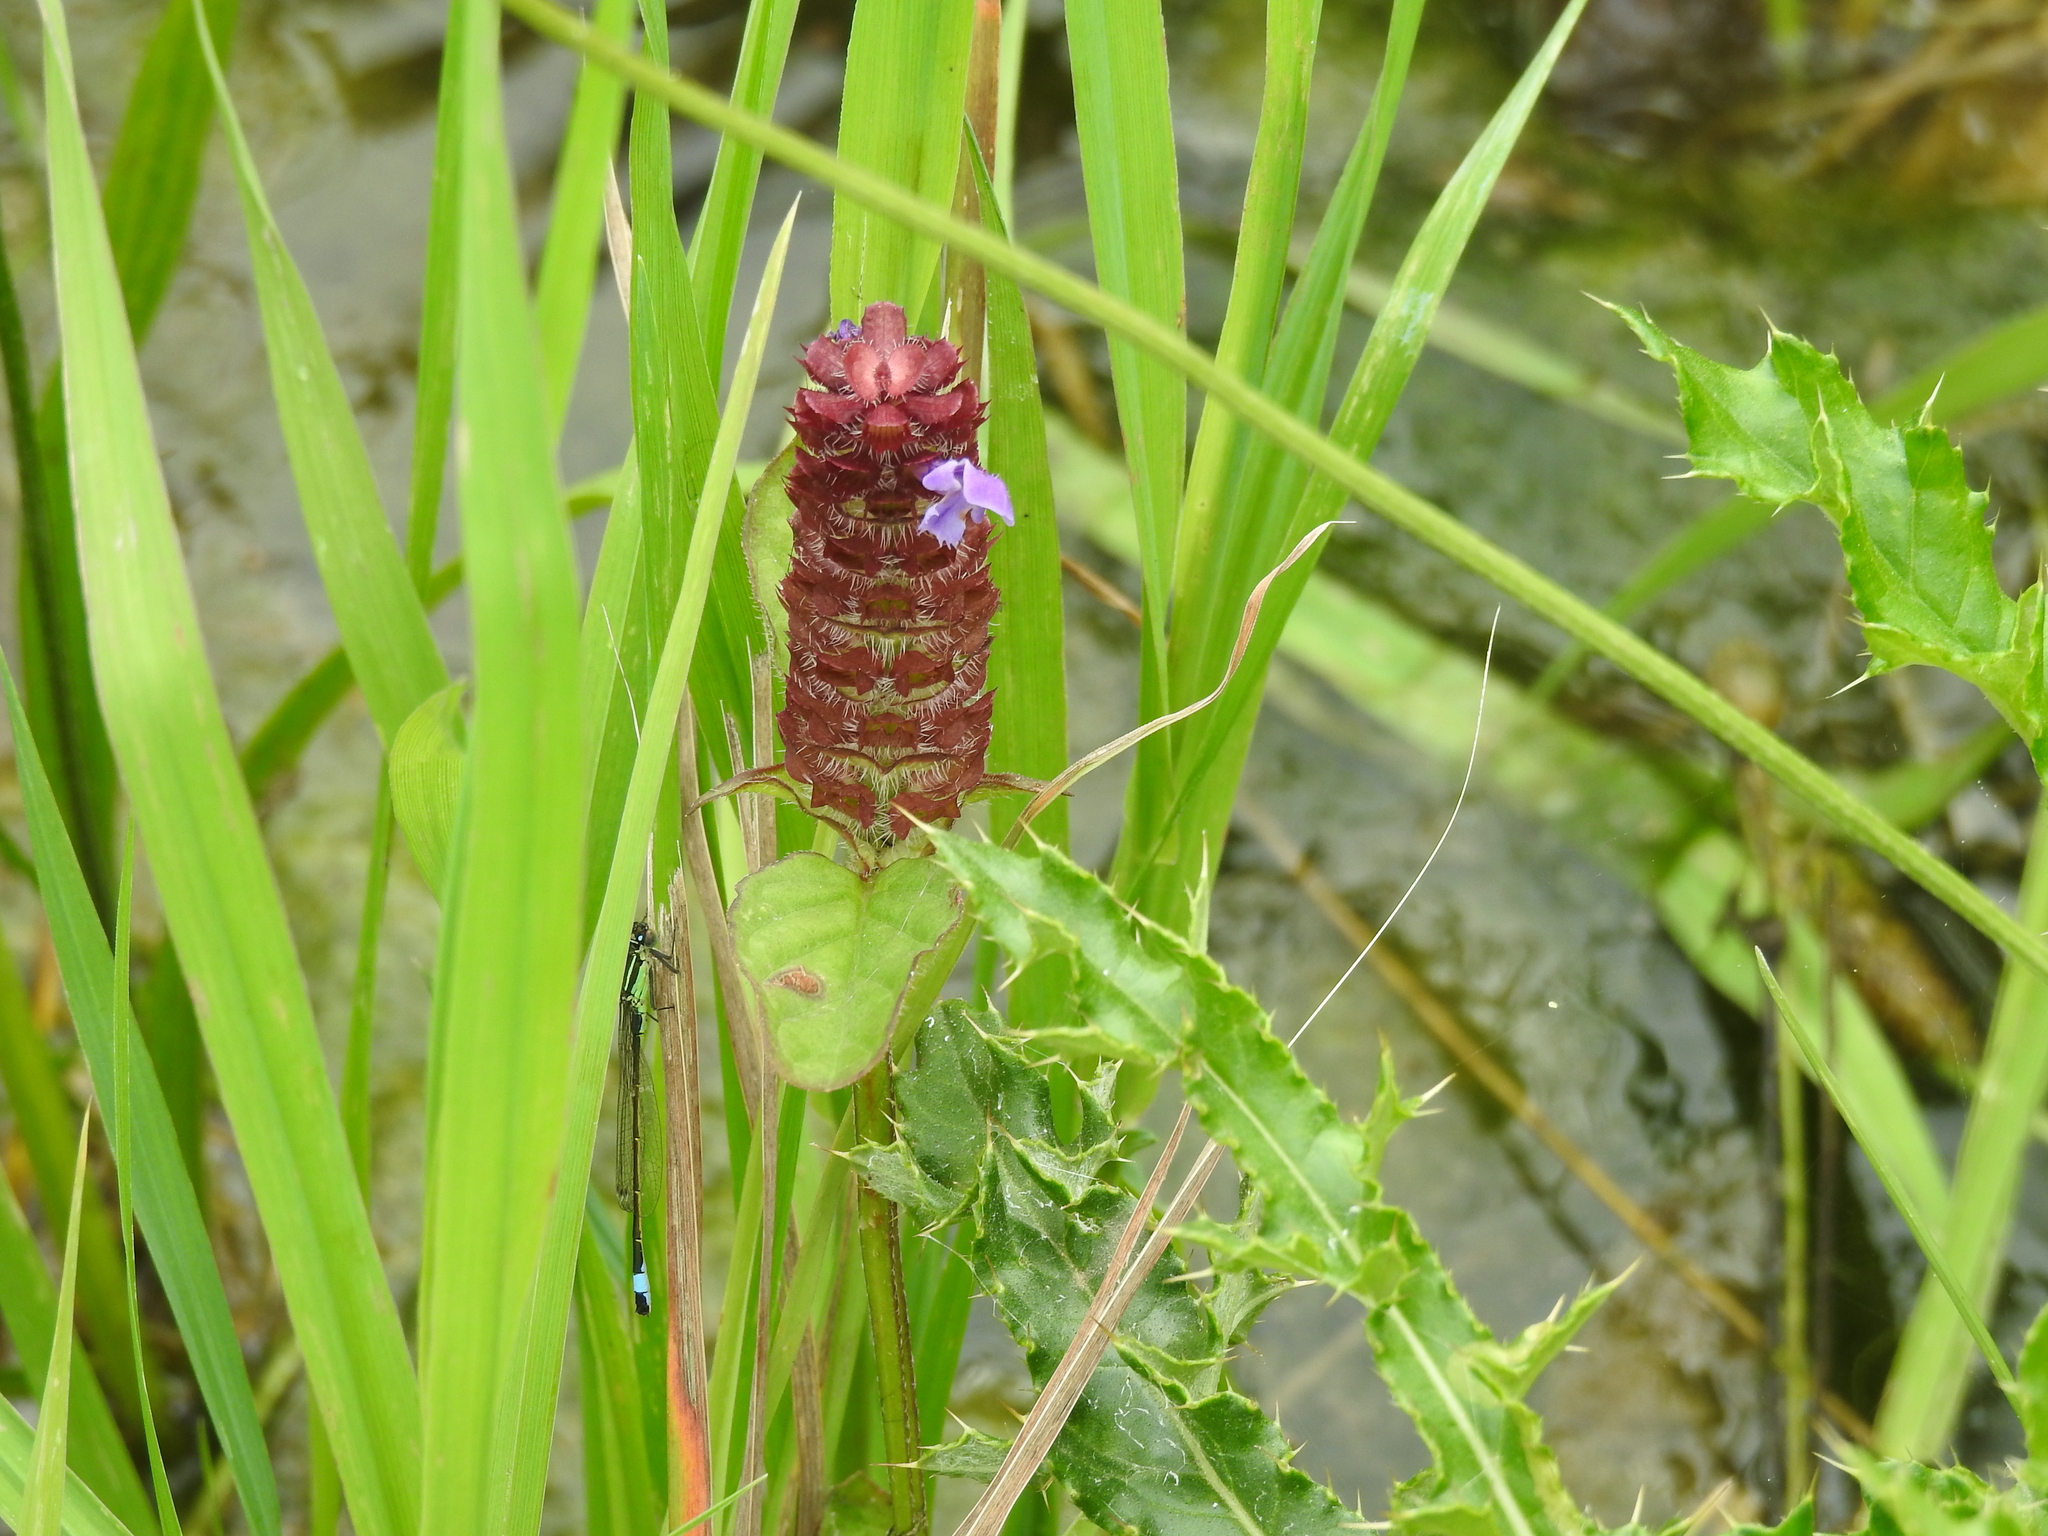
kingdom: Plantae
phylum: Tracheophyta
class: Magnoliopsida
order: Lamiales
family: Lamiaceae
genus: Prunella
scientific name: Prunella vulgaris
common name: Heal-all
